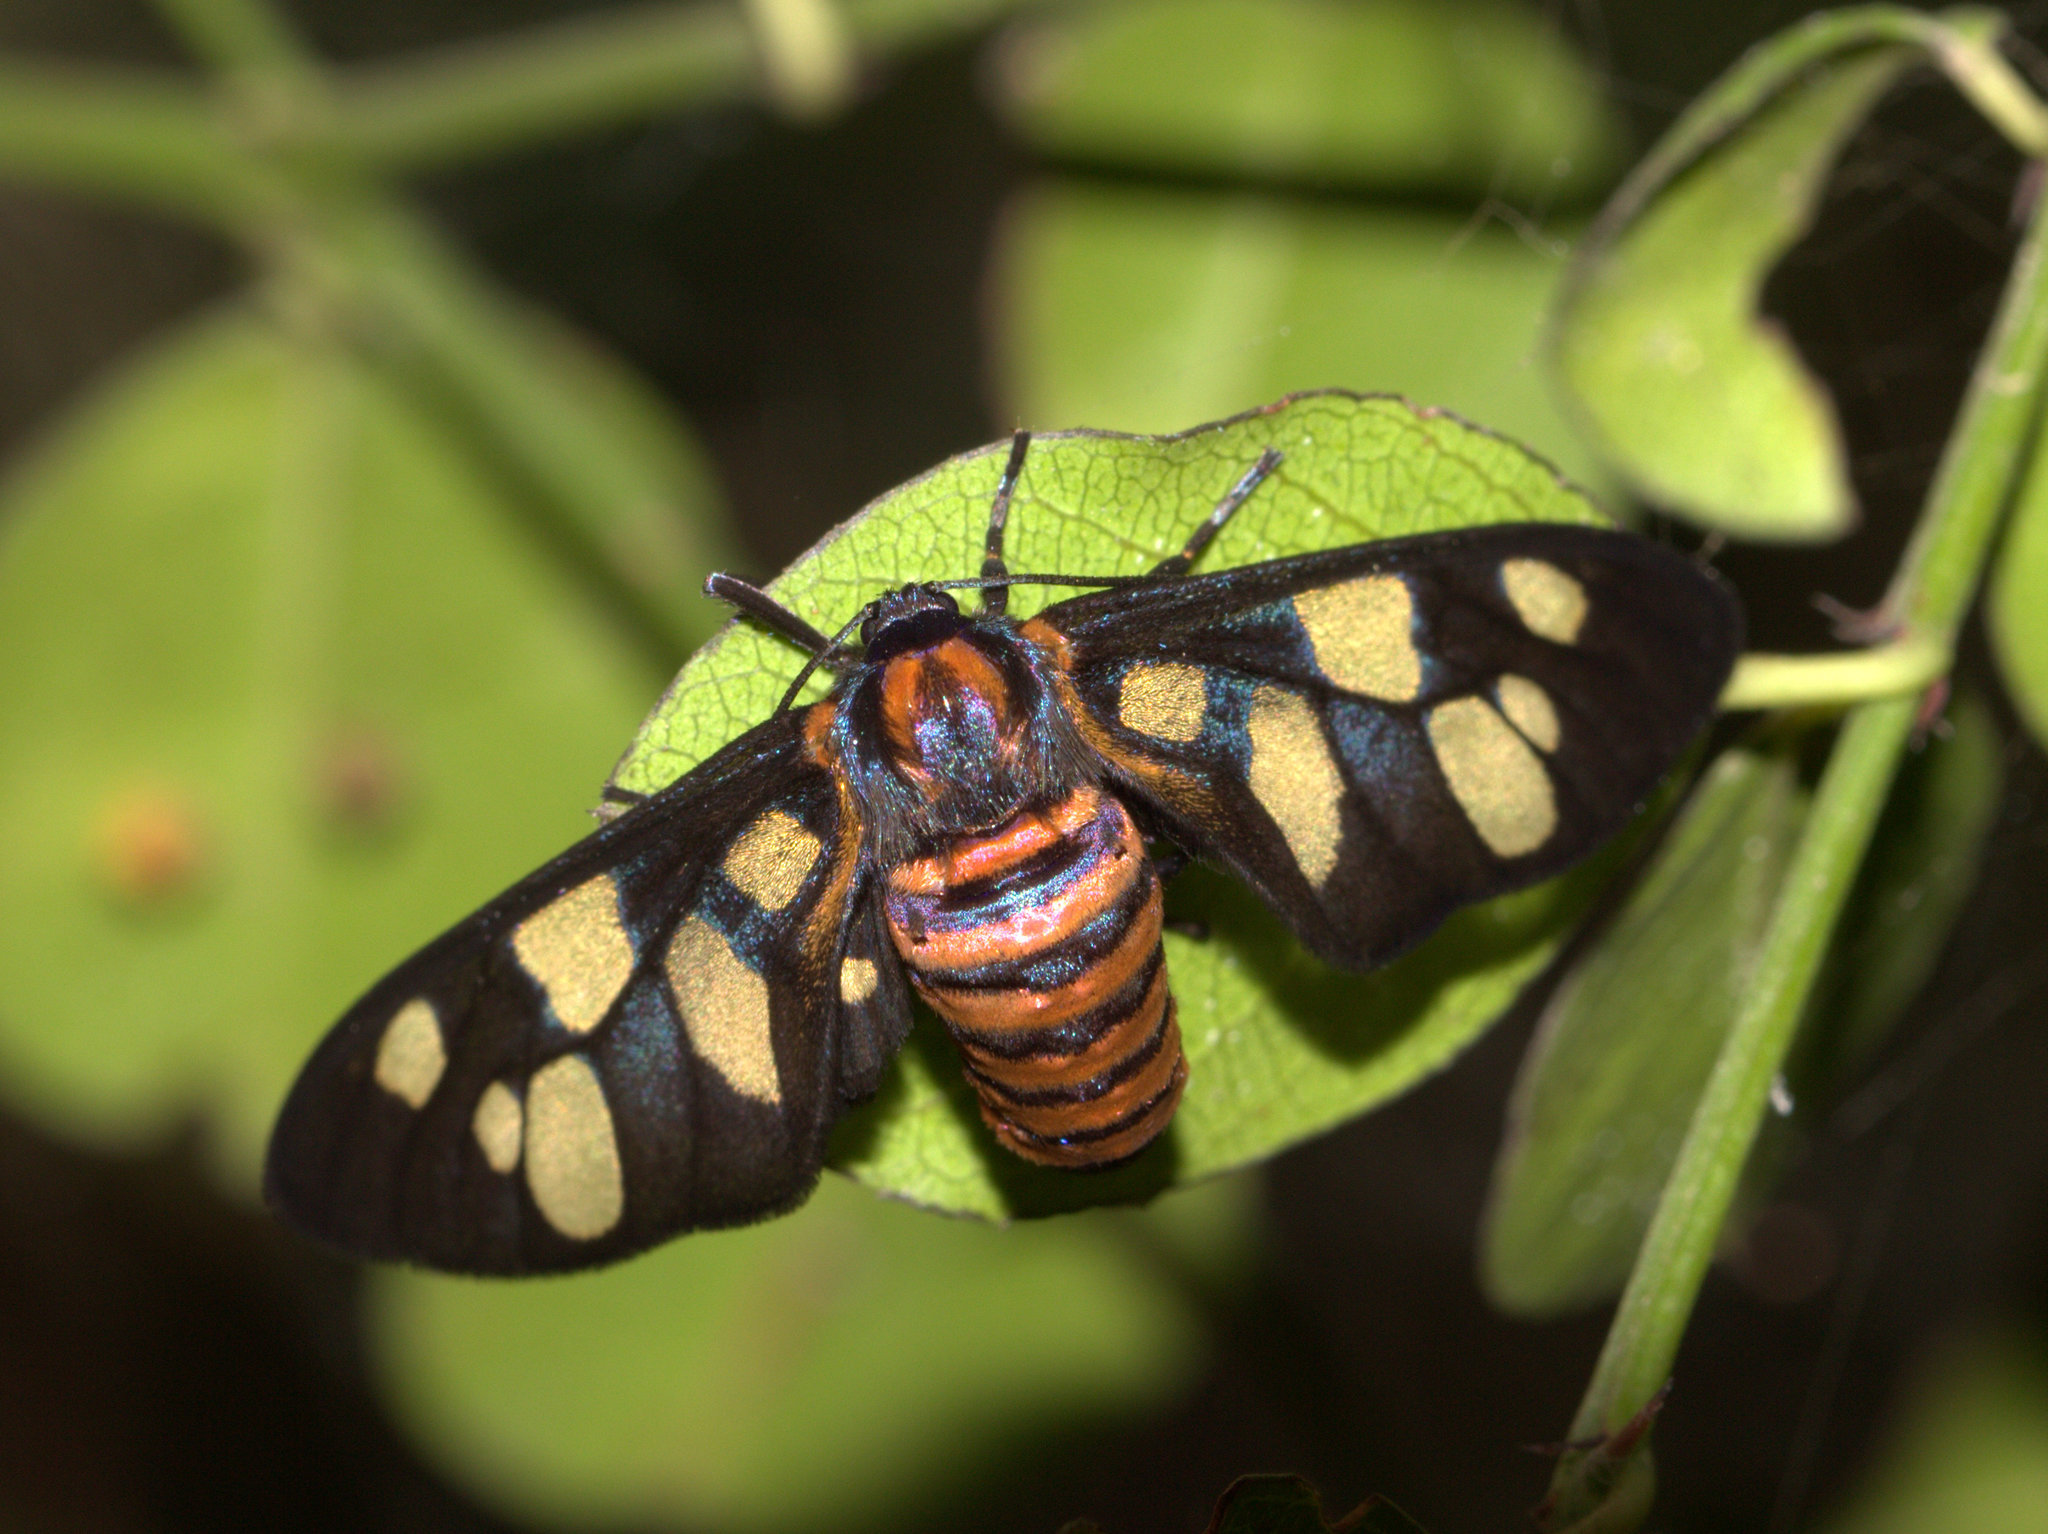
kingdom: Animalia
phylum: Arthropoda
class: Insecta
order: Lepidoptera
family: Erebidae
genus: Amata
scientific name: Amata passalis
